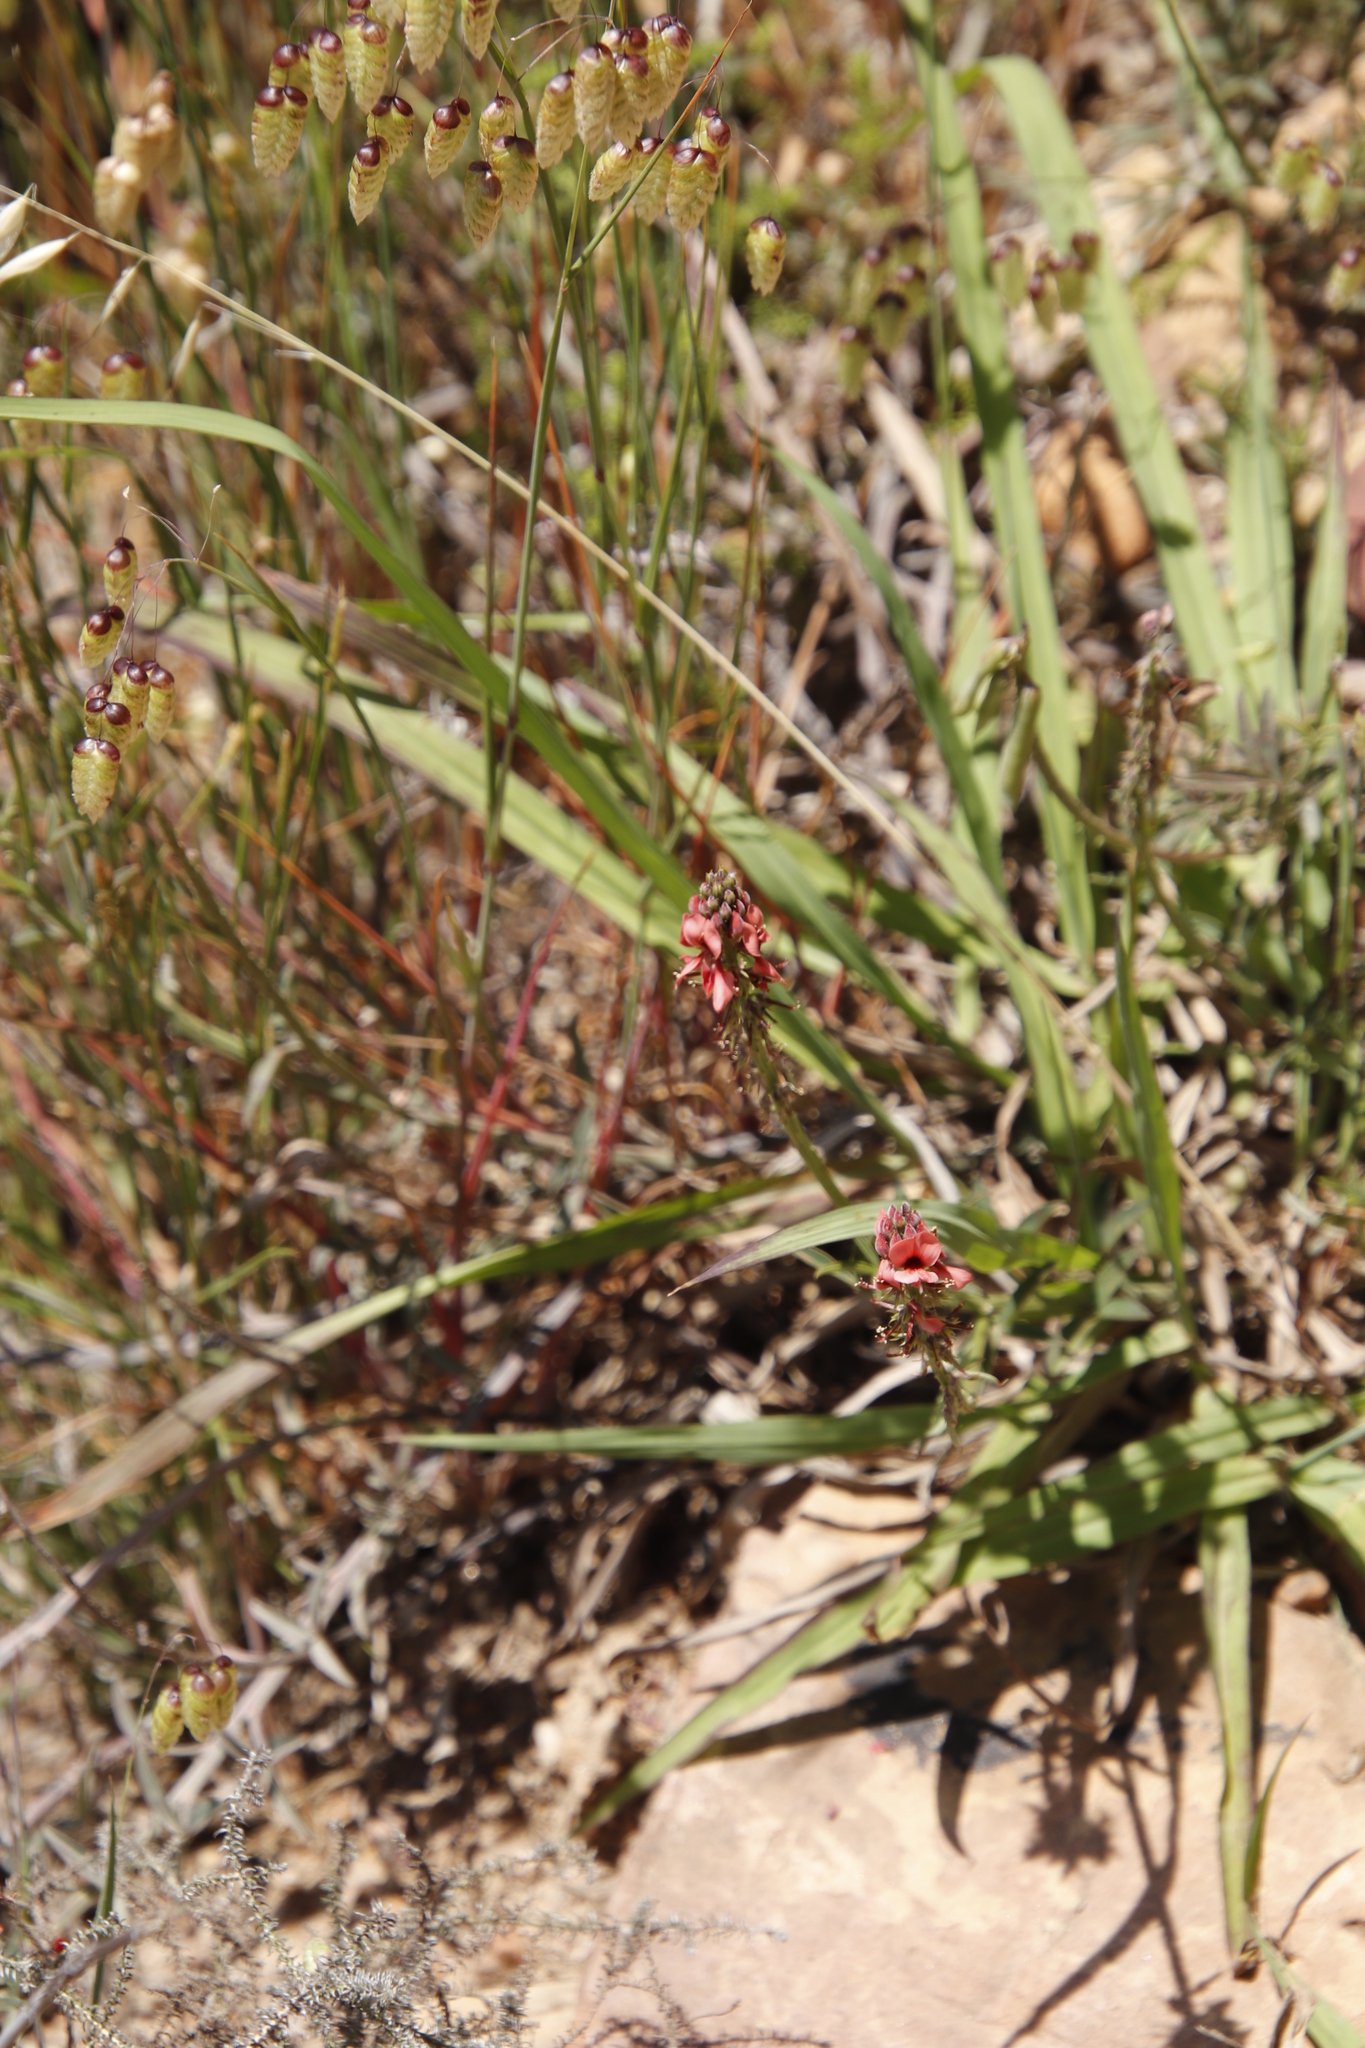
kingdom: Plantae
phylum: Tracheophyta
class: Magnoliopsida
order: Fabales
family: Fabaceae
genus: Indigofera
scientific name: Indigofera complanata
